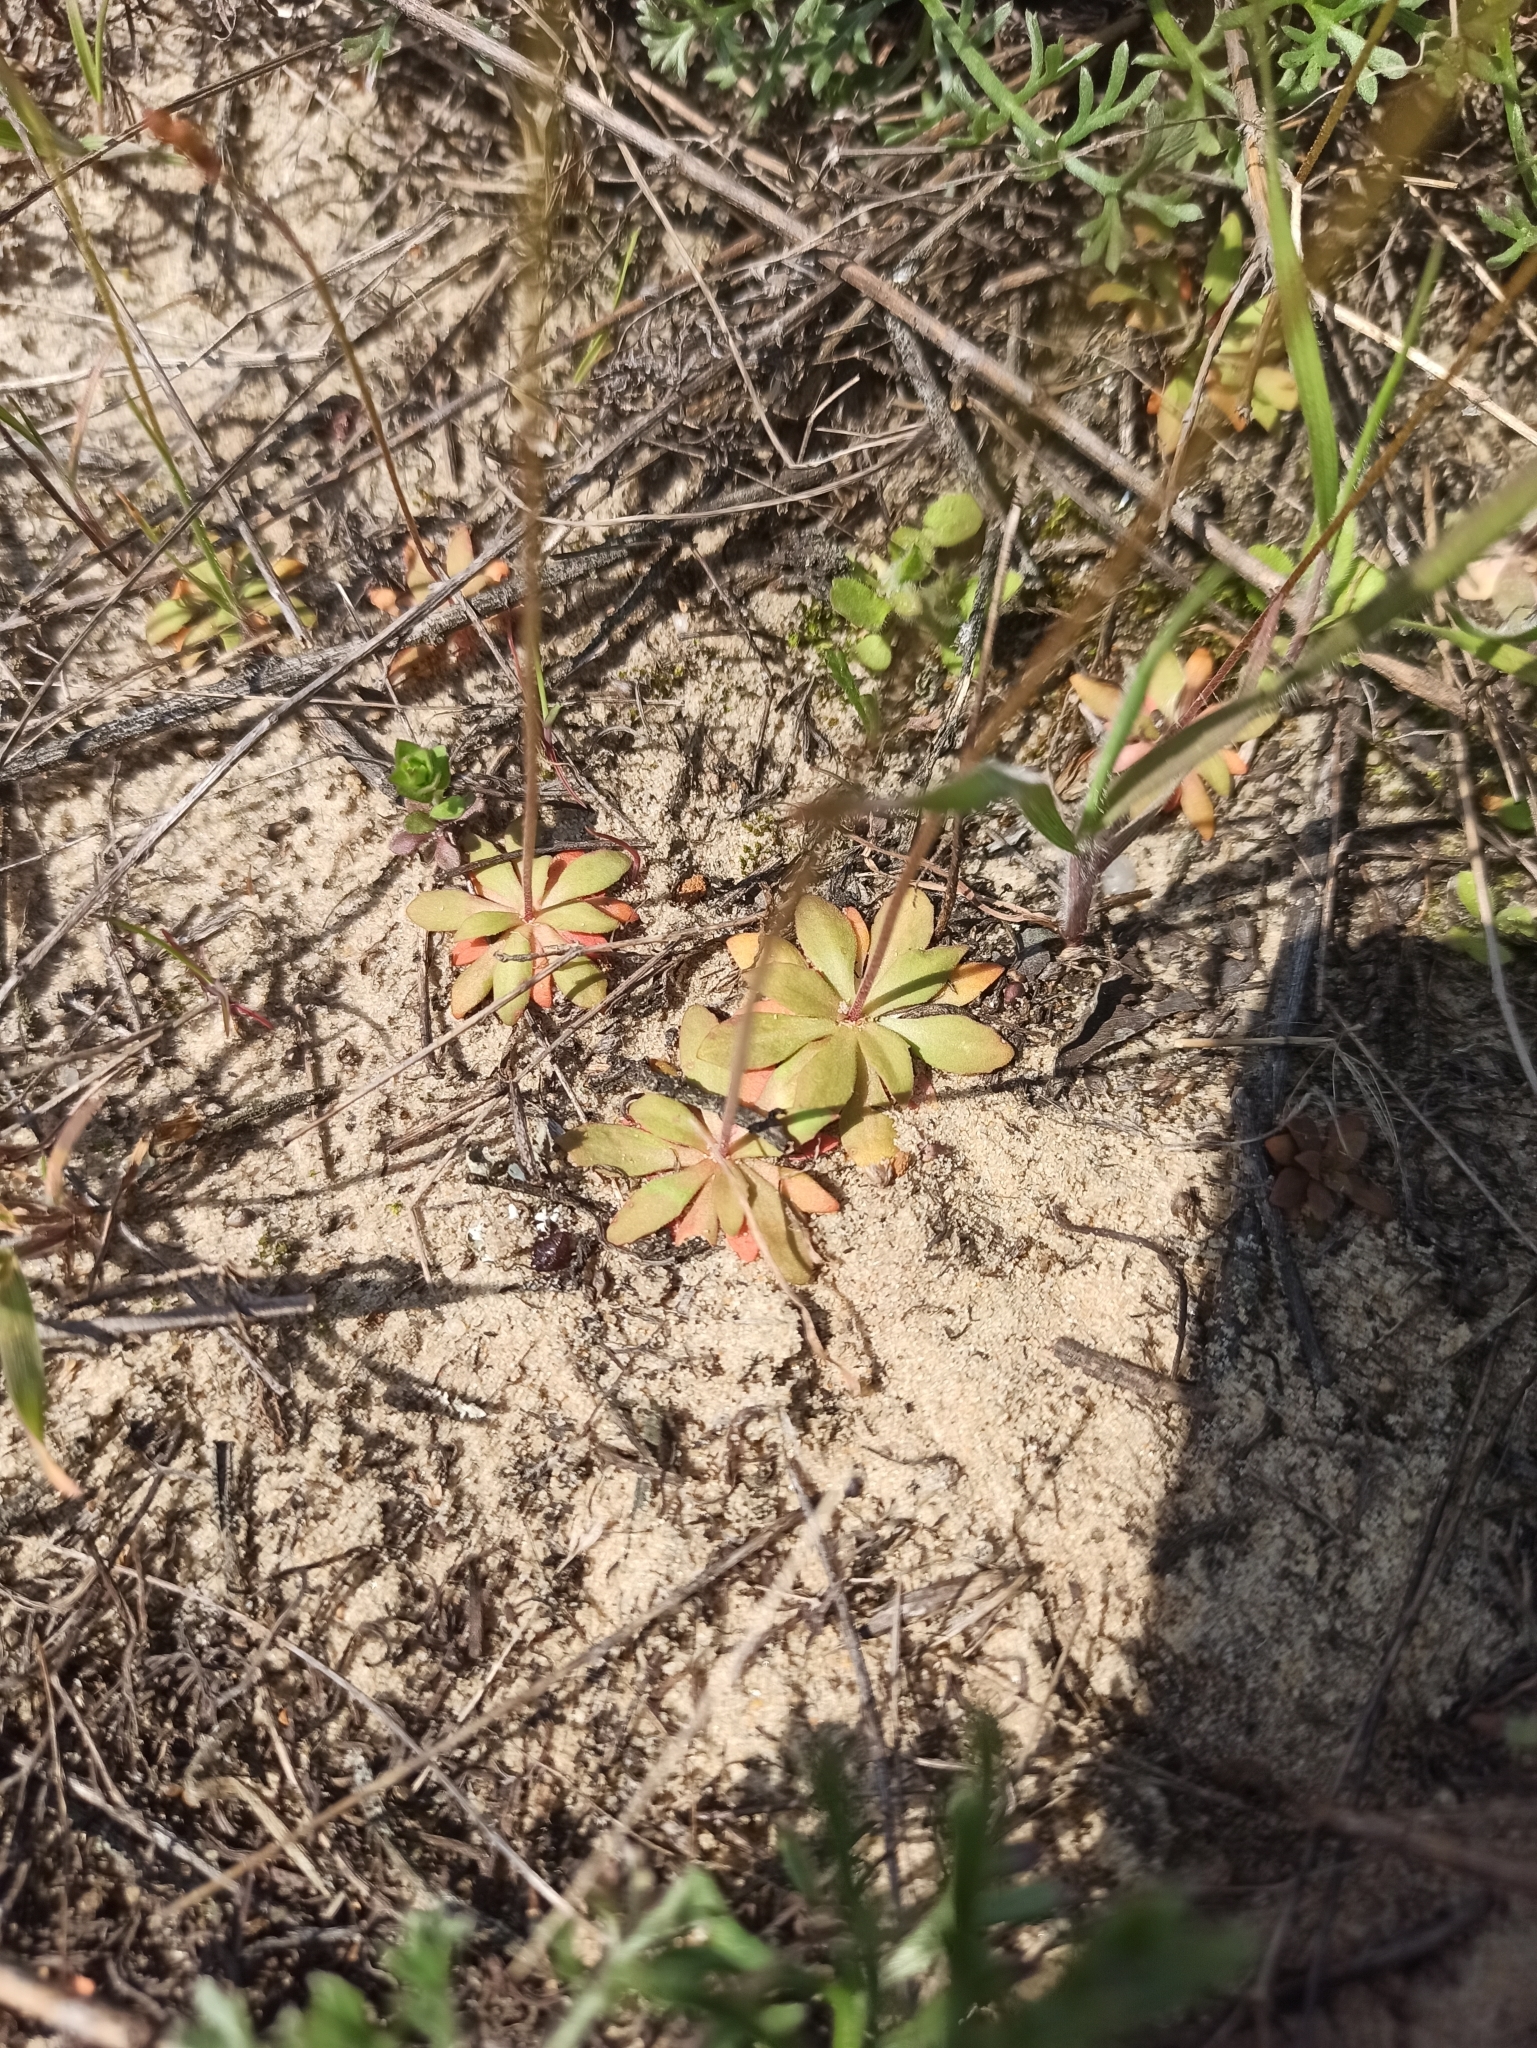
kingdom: Plantae
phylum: Tracheophyta
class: Magnoliopsida
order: Ericales
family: Primulaceae
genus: Androsace
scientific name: Androsace septentrionalis
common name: Hairy northern fairy-candelabra
